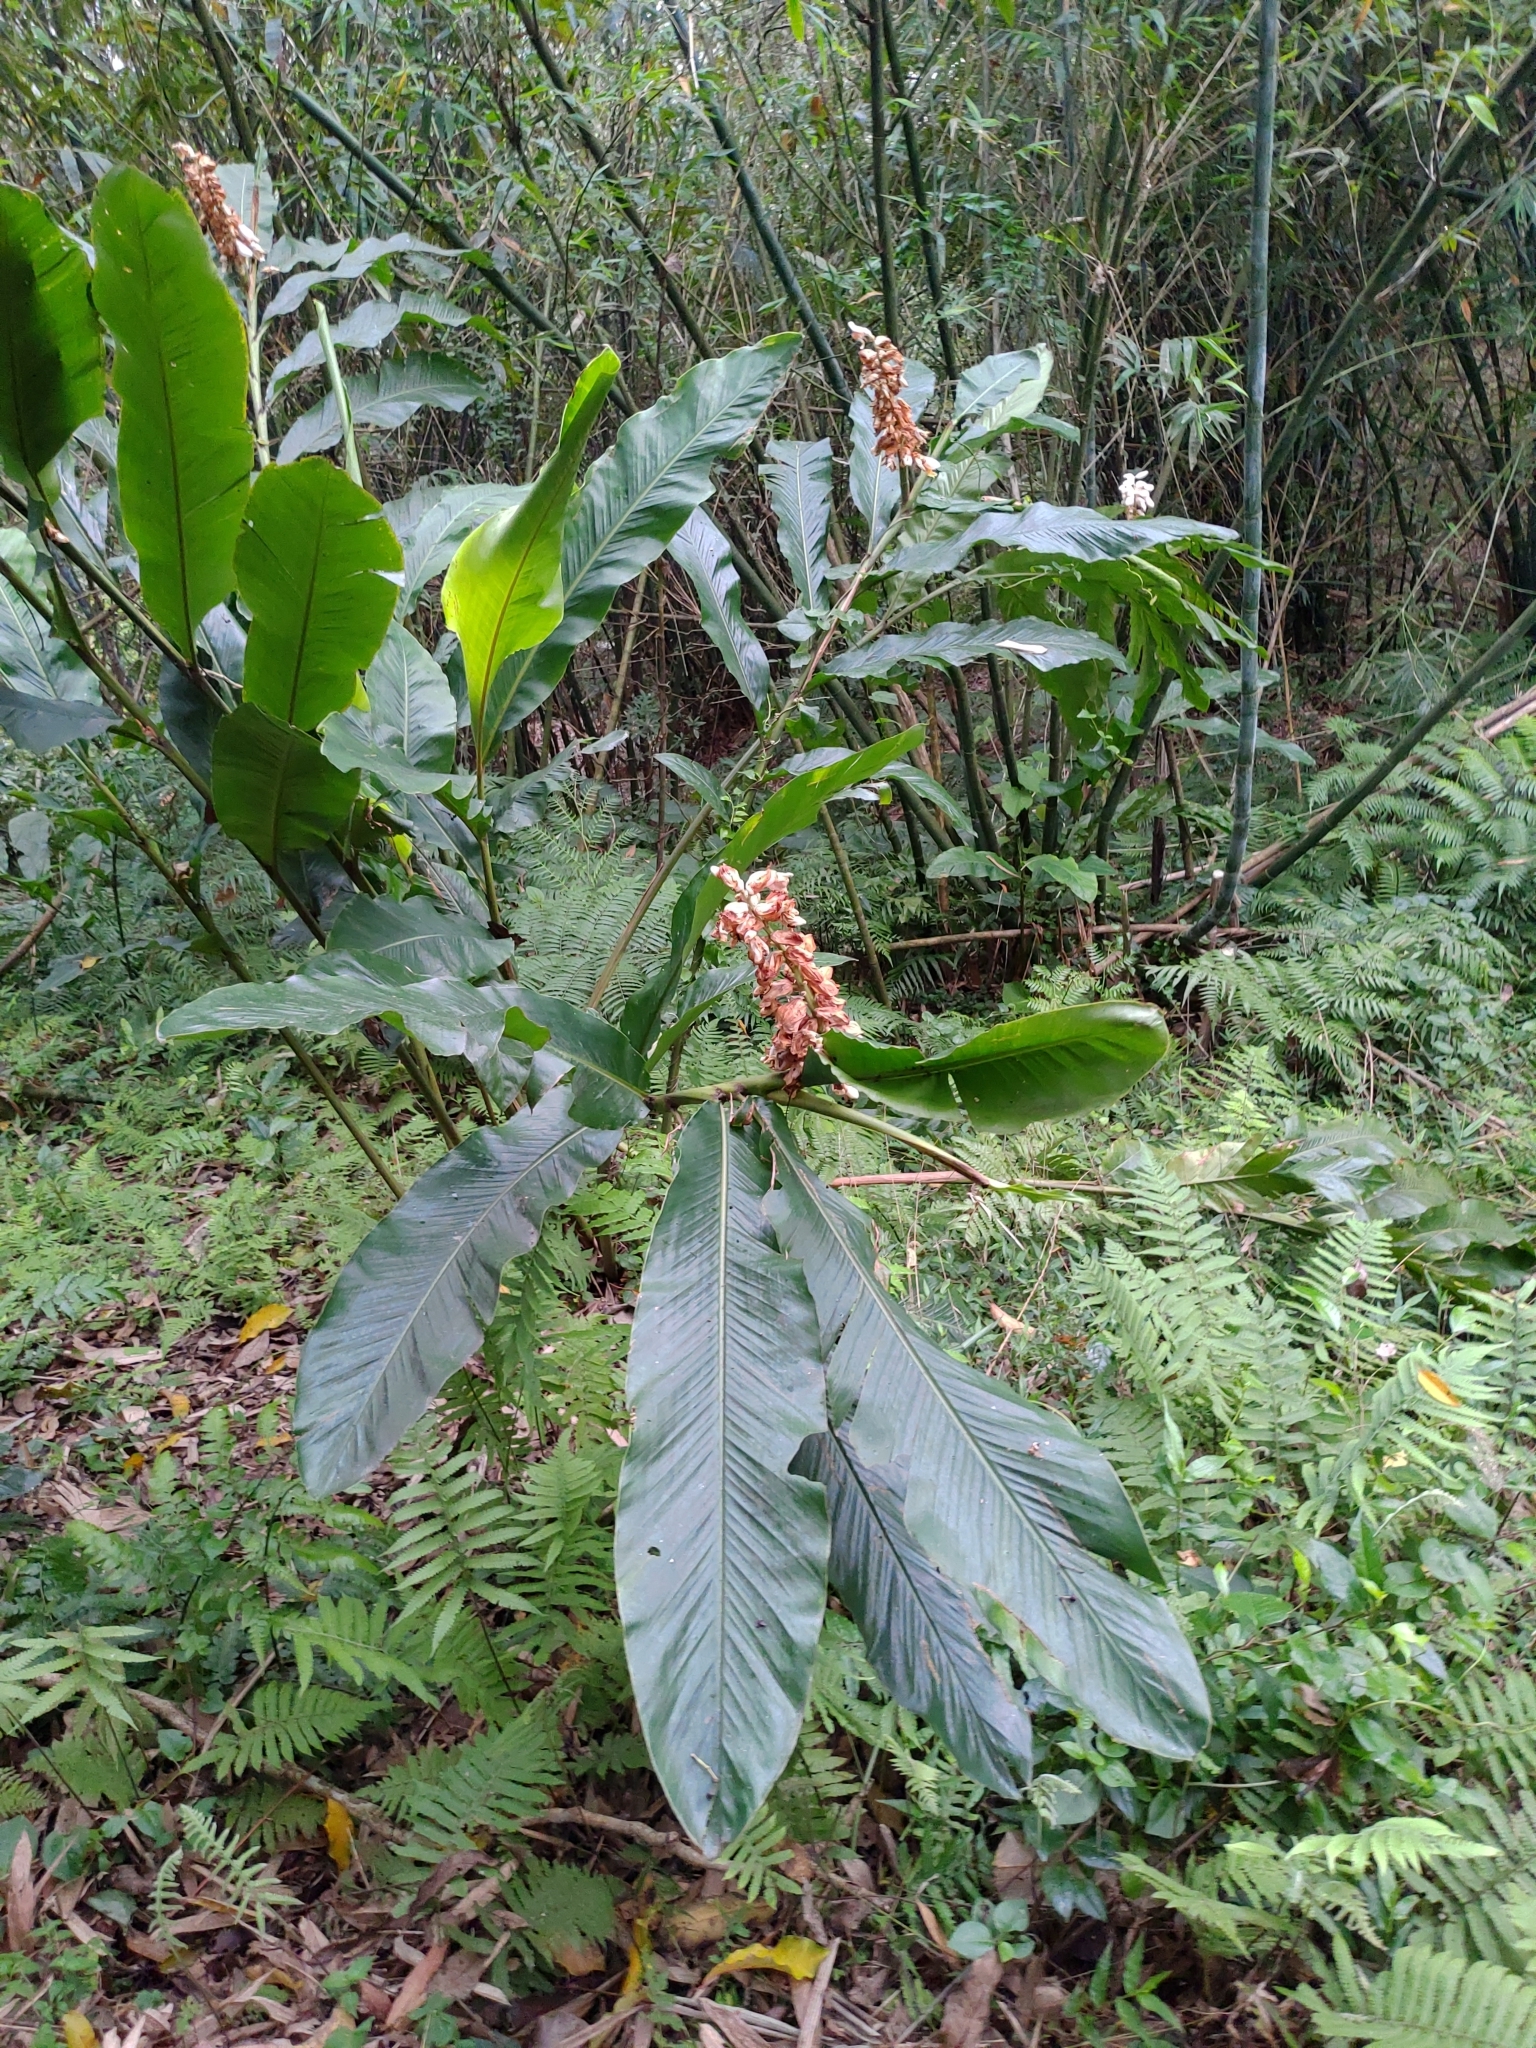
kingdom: Plantae
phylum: Tracheophyta
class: Liliopsida
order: Zingiberales
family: Zingiberaceae
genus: Alpinia
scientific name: Alpinia uraiensis
